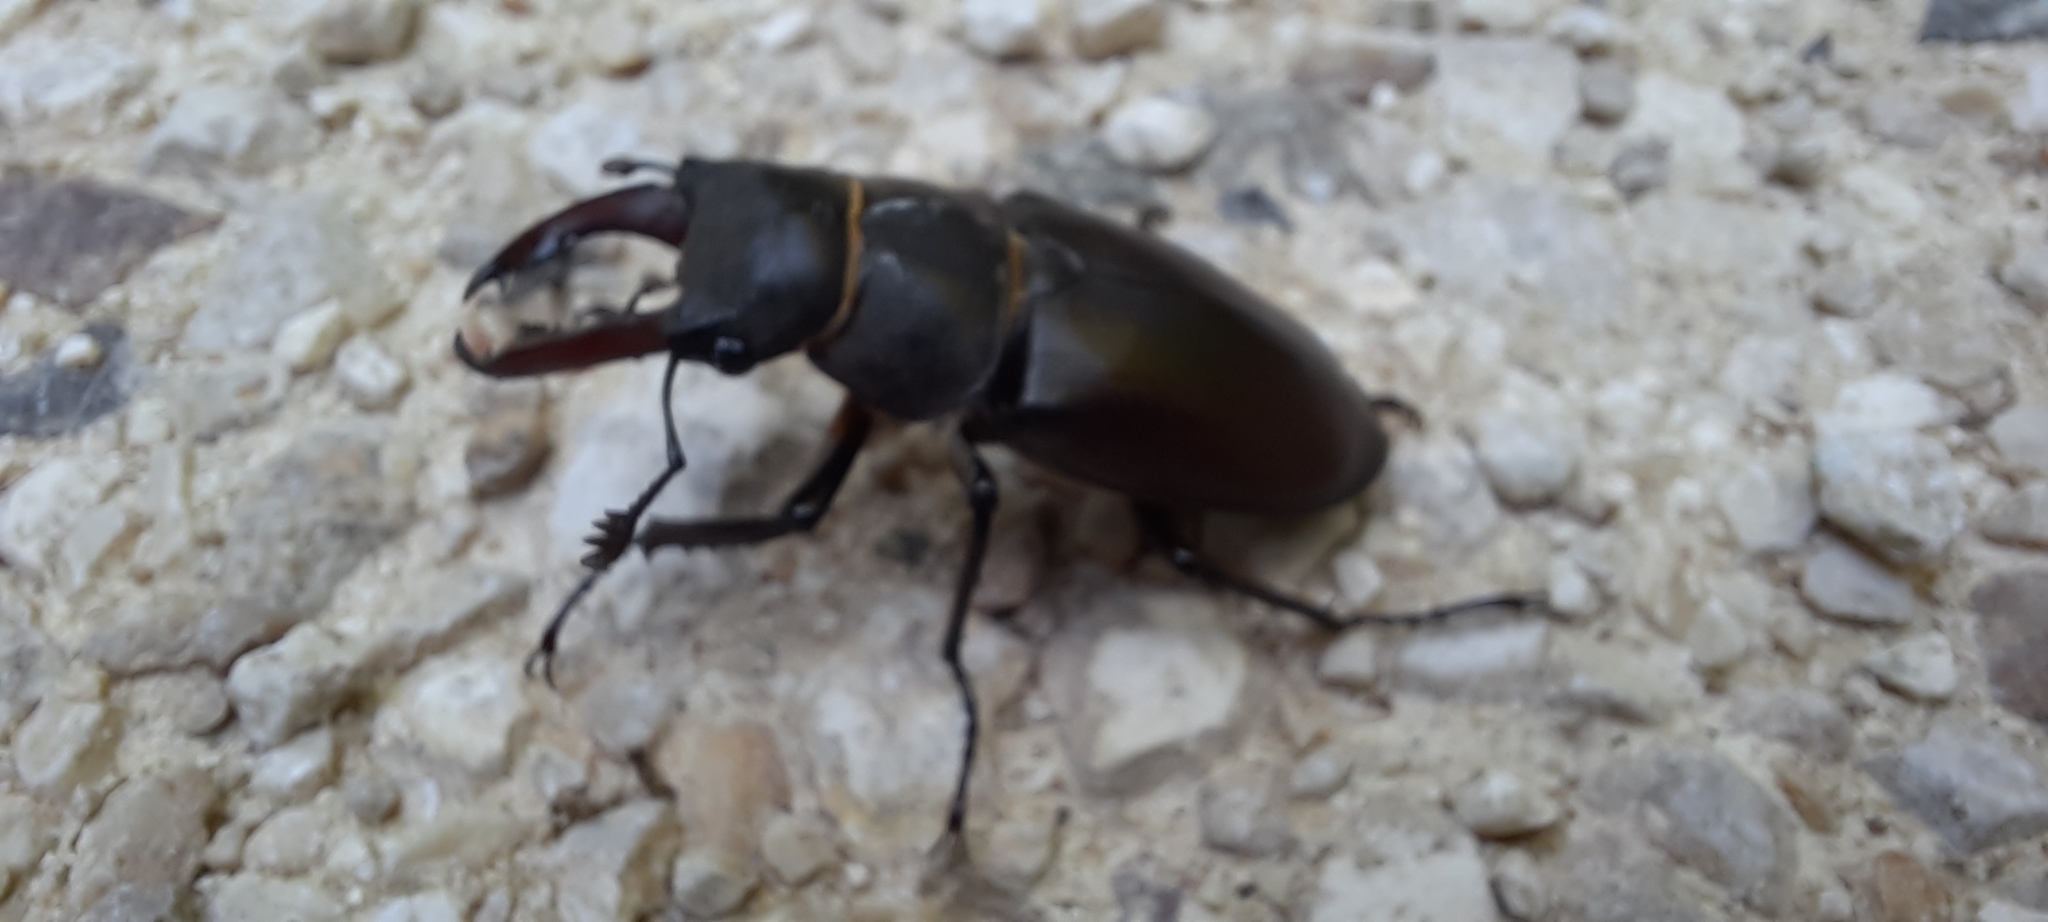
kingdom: Animalia
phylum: Arthropoda
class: Insecta
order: Coleoptera
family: Lucanidae
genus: Lucanus
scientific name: Lucanus cervus
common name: Stag beetle
